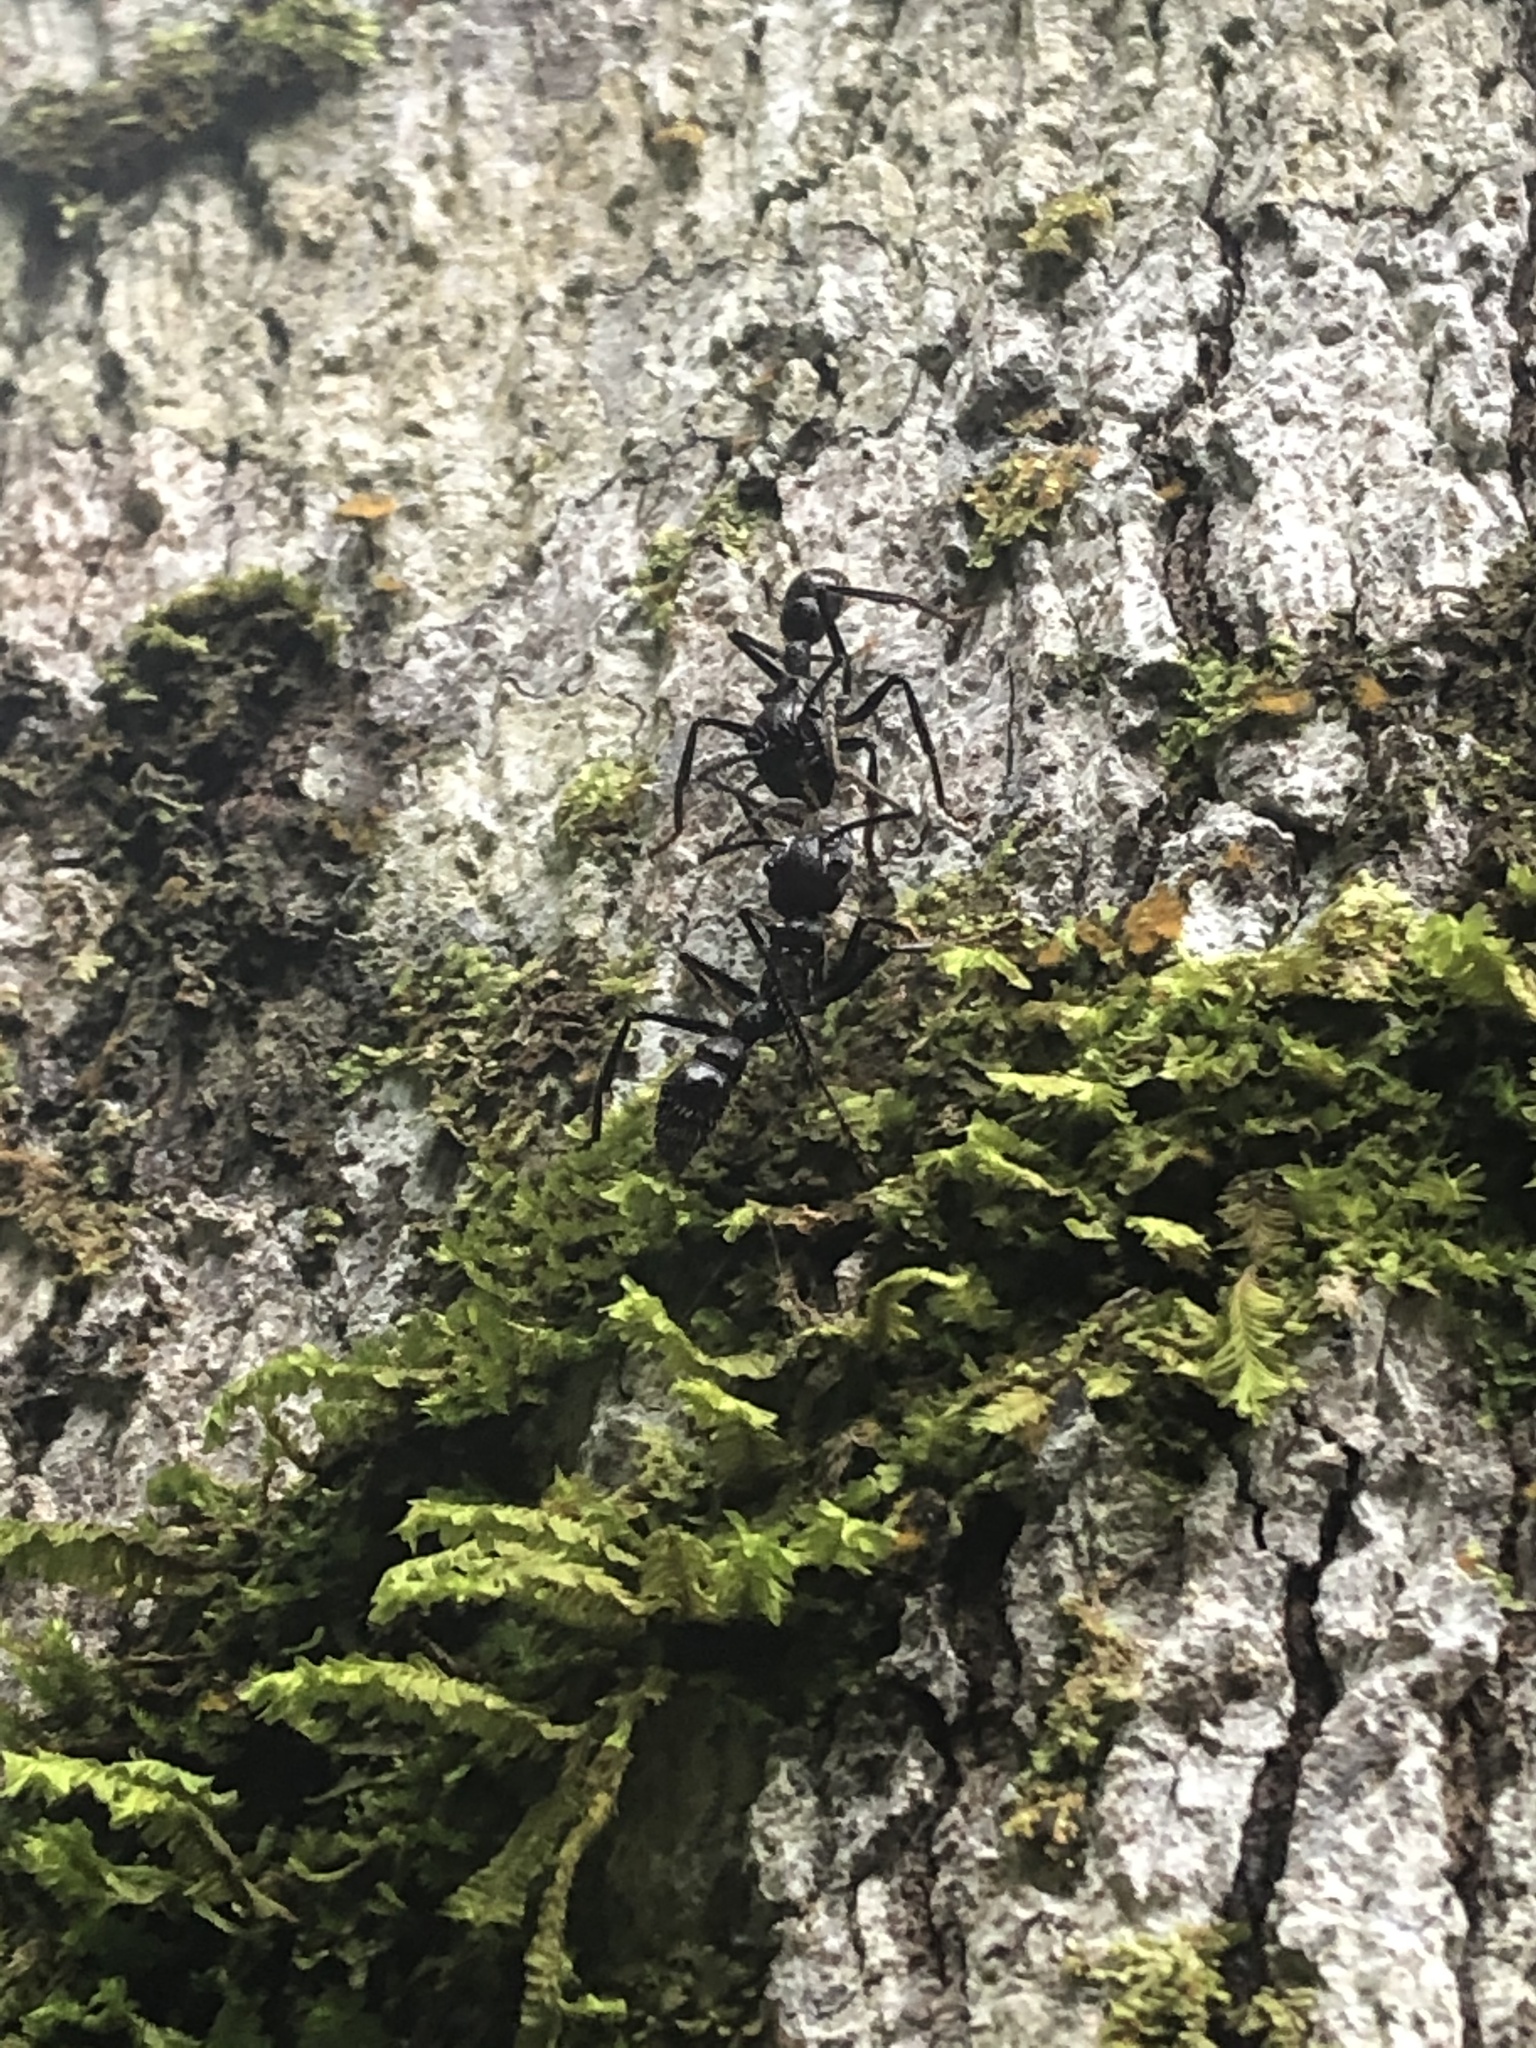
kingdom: Animalia
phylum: Arthropoda
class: Insecta
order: Hymenoptera
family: Formicidae
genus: Paraponera
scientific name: Paraponera clavata
